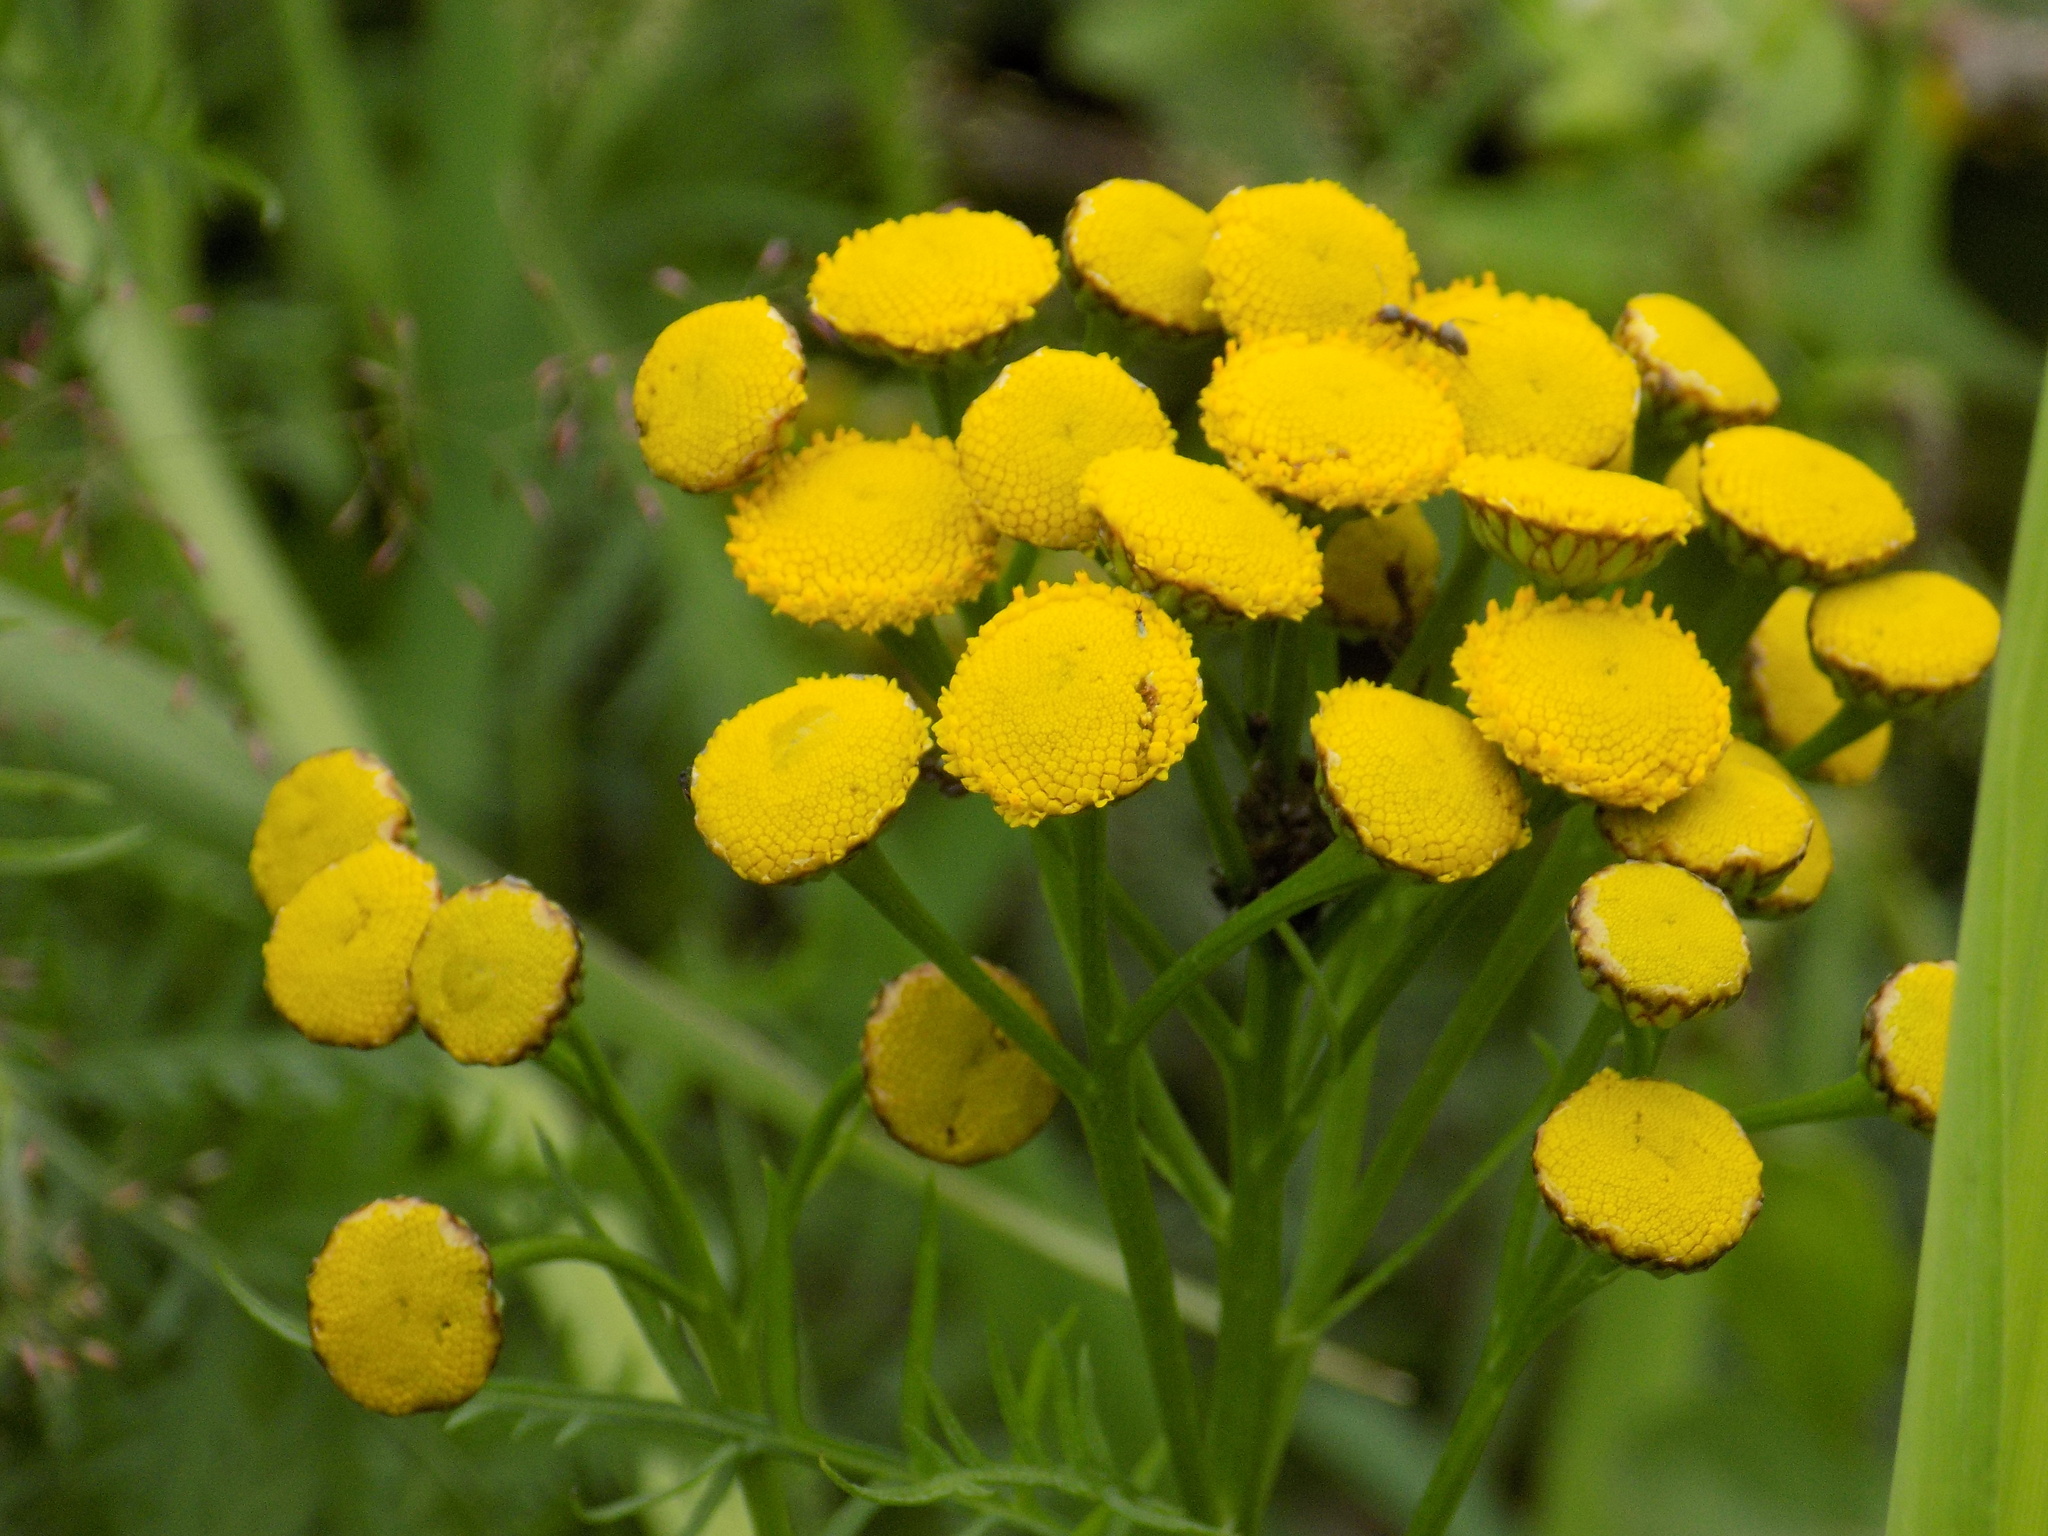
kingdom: Plantae
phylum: Tracheophyta
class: Magnoliopsida
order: Asterales
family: Asteraceae
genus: Tanacetum
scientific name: Tanacetum vulgare
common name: Common tansy
